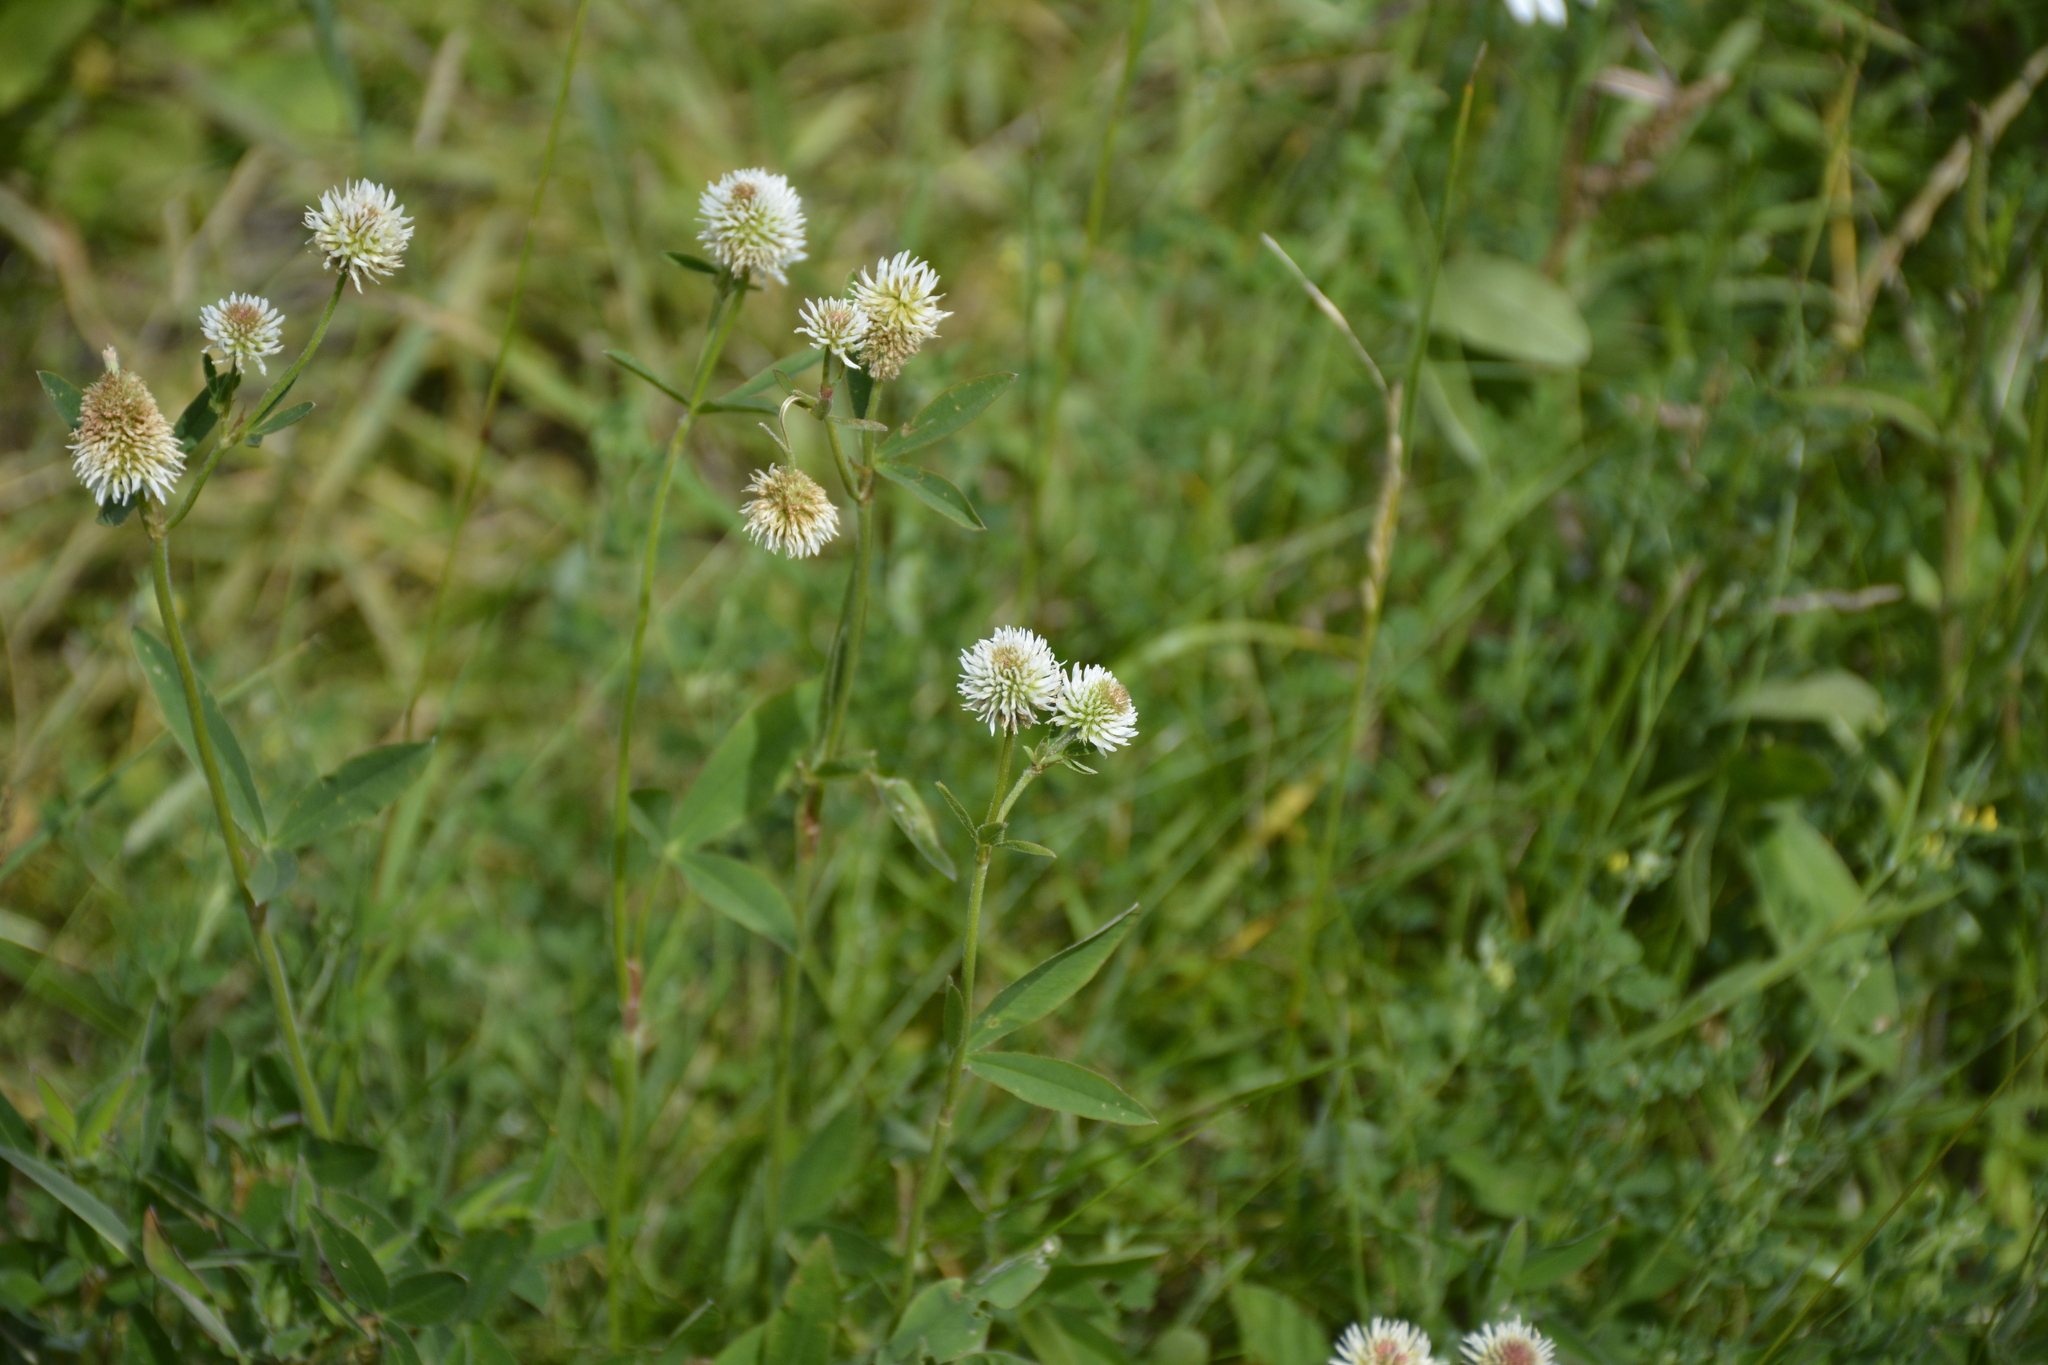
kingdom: Plantae
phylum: Tracheophyta
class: Magnoliopsida
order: Fabales
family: Fabaceae
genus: Trifolium
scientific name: Trifolium montanum
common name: Mountain clover
